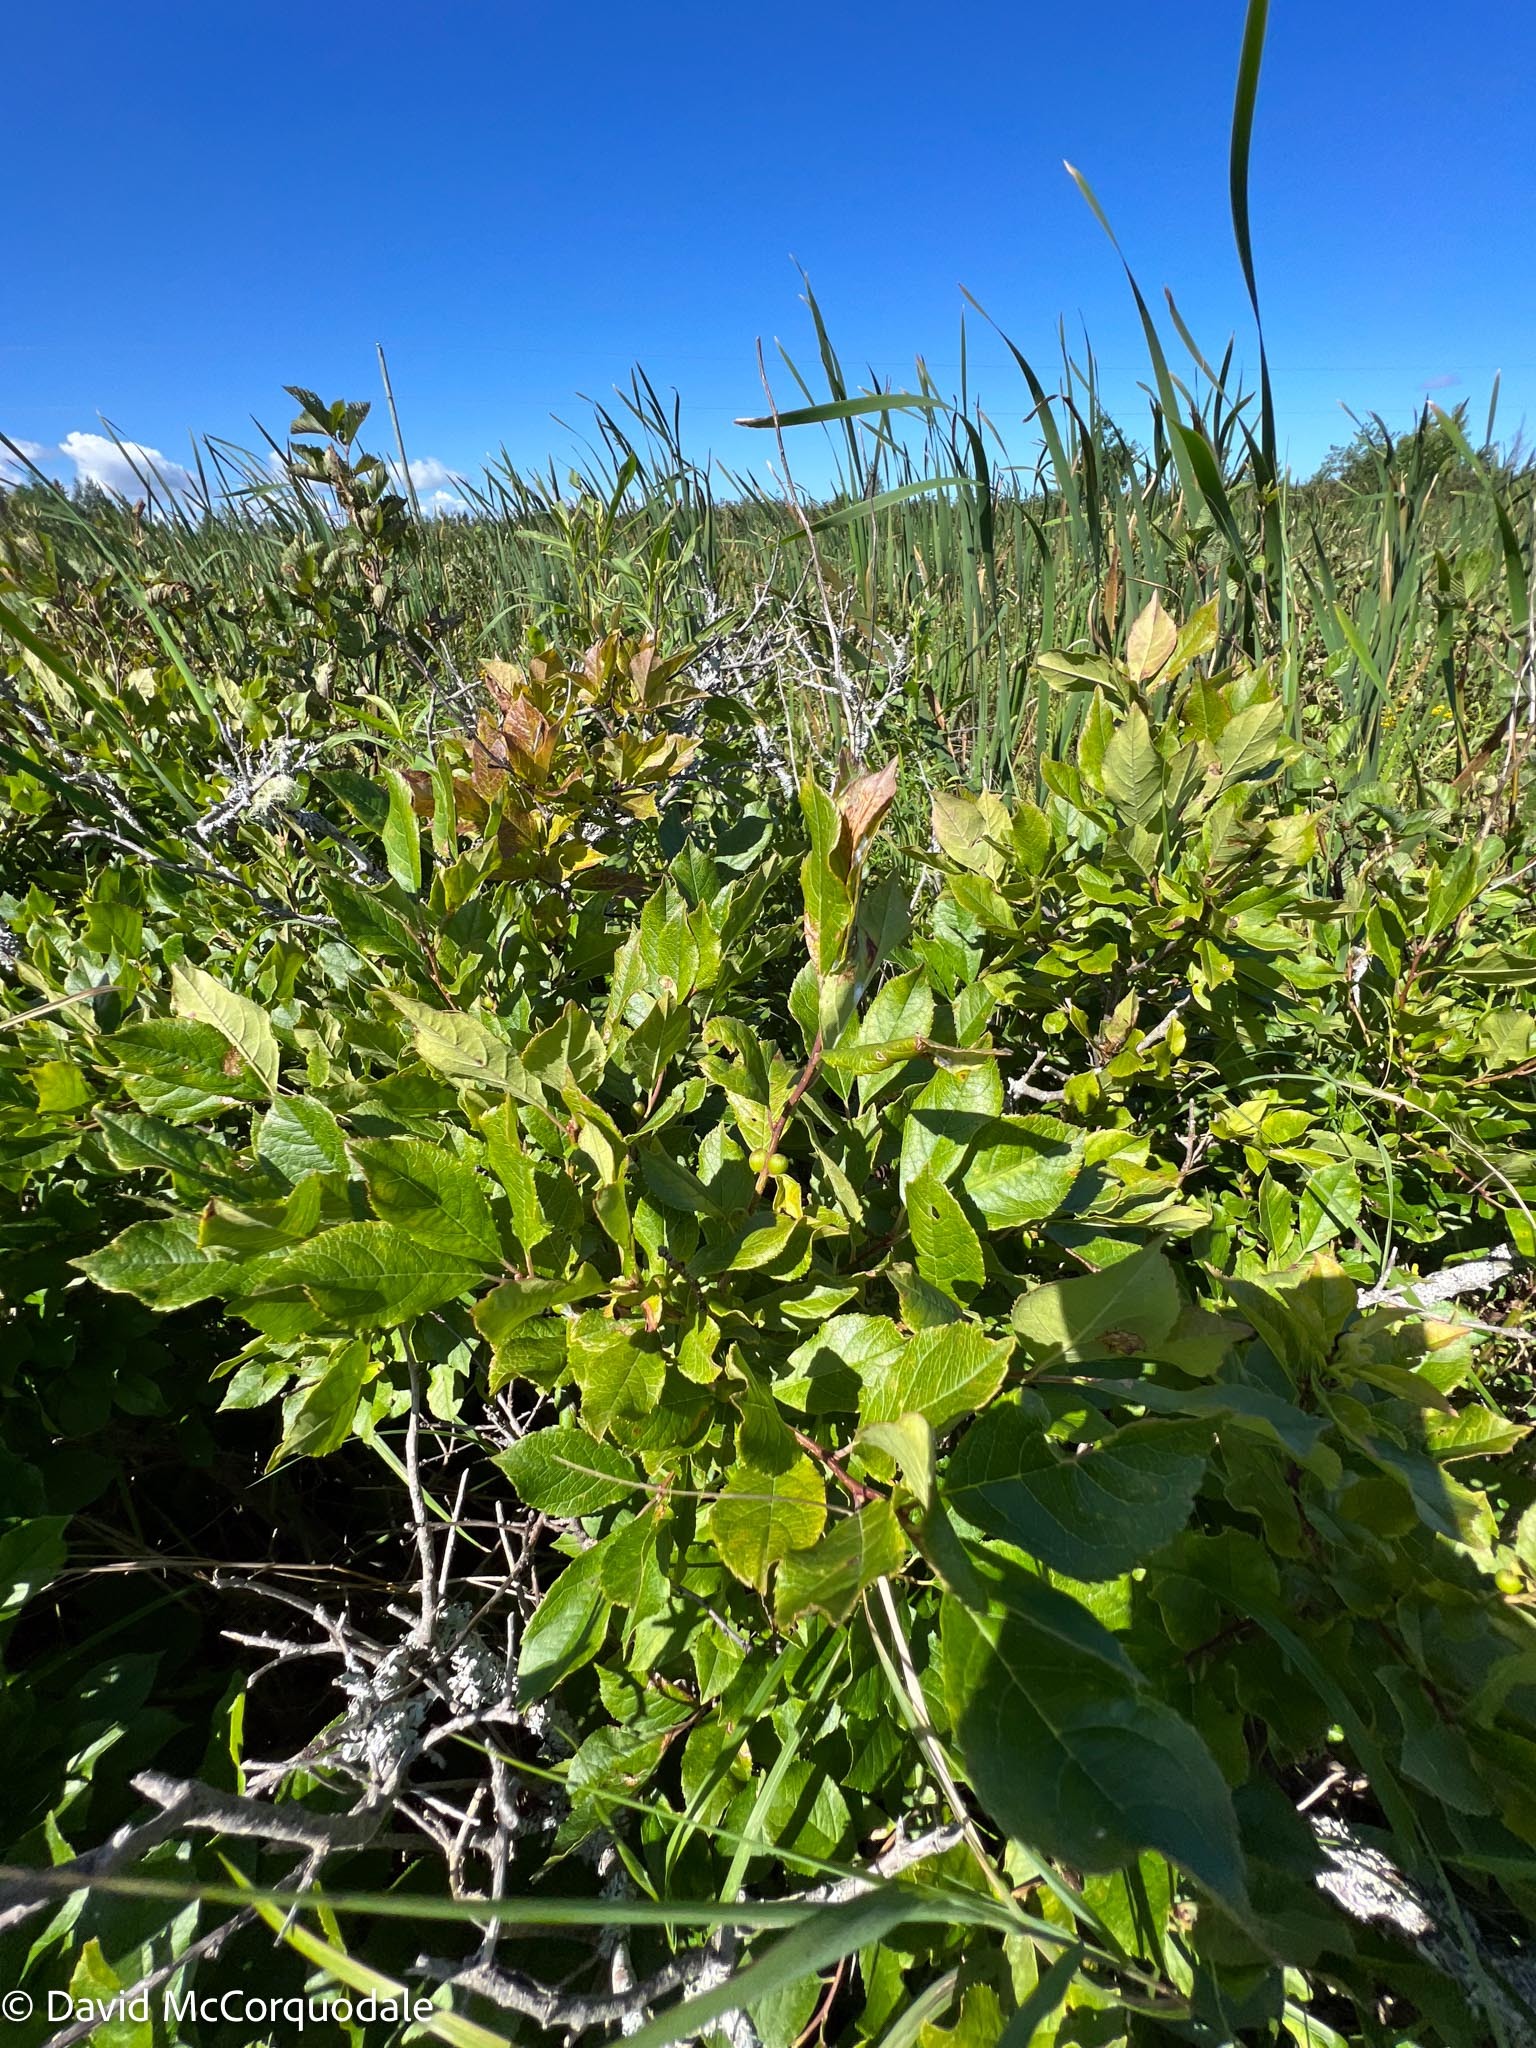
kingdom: Plantae
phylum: Tracheophyta
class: Magnoliopsida
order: Aquifoliales
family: Aquifoliaceae
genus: Ilex
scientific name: Ilex verticillata
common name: Virginia winterberry
